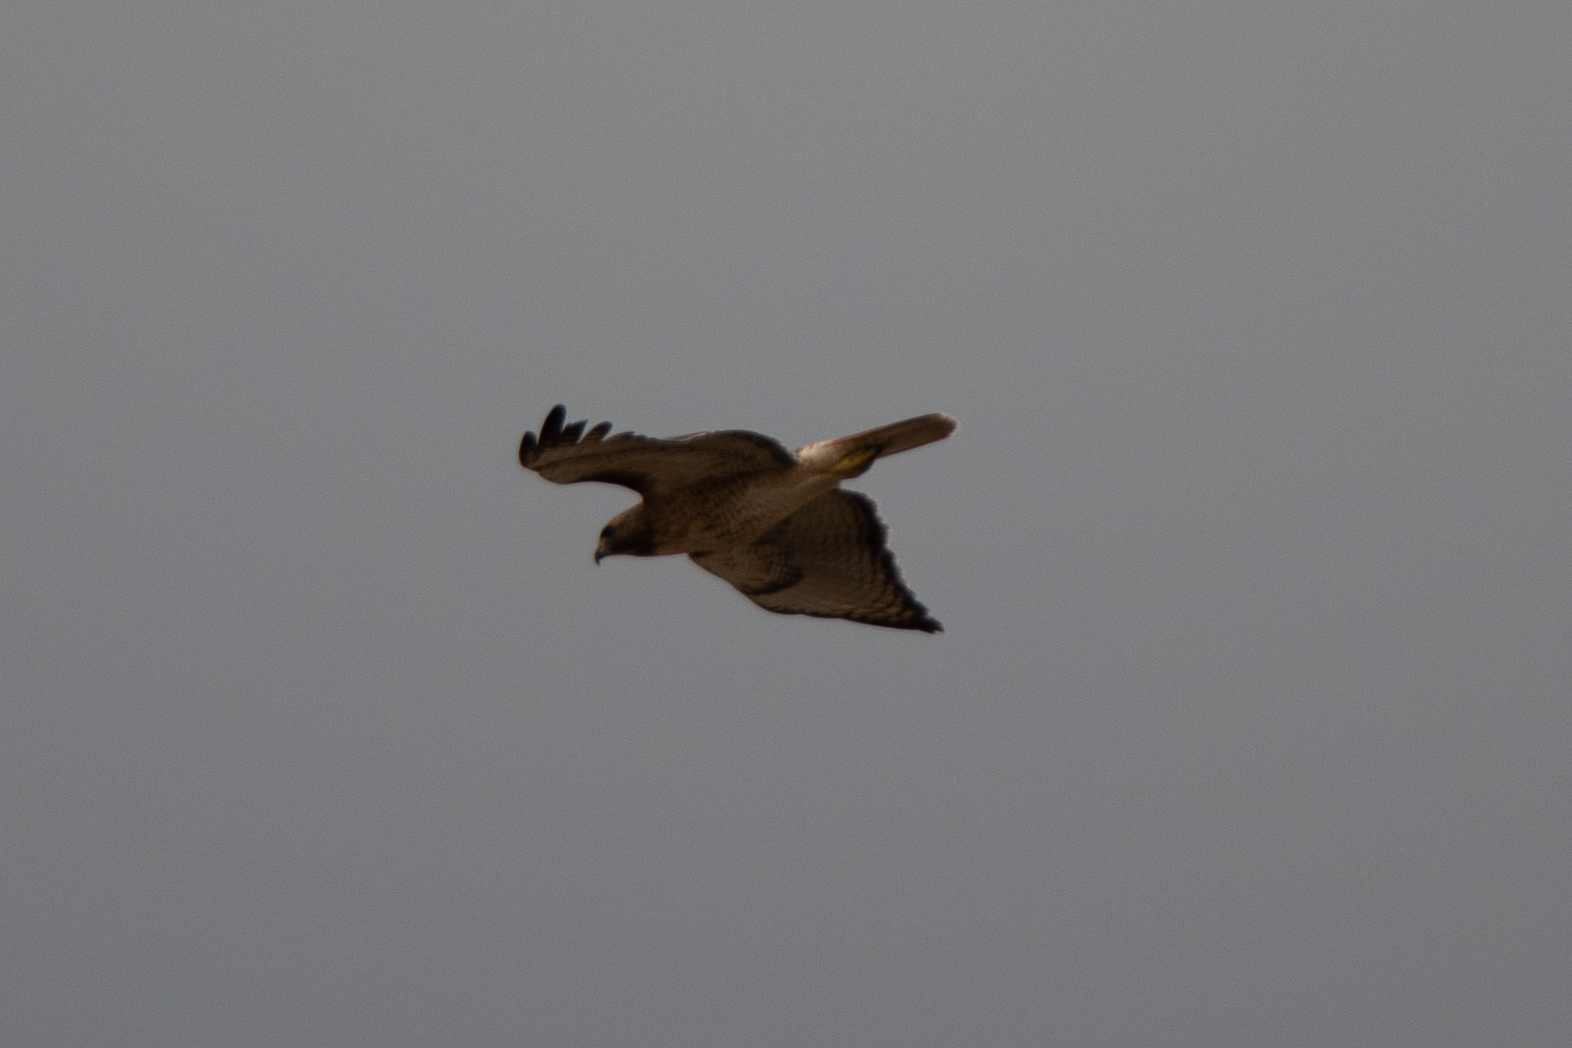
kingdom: Animalia
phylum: Chordata
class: Aves
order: Accipitriformes
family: Accipitridae
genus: Buteo
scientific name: Buteo jamaicensis
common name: Red-tailed hawk
